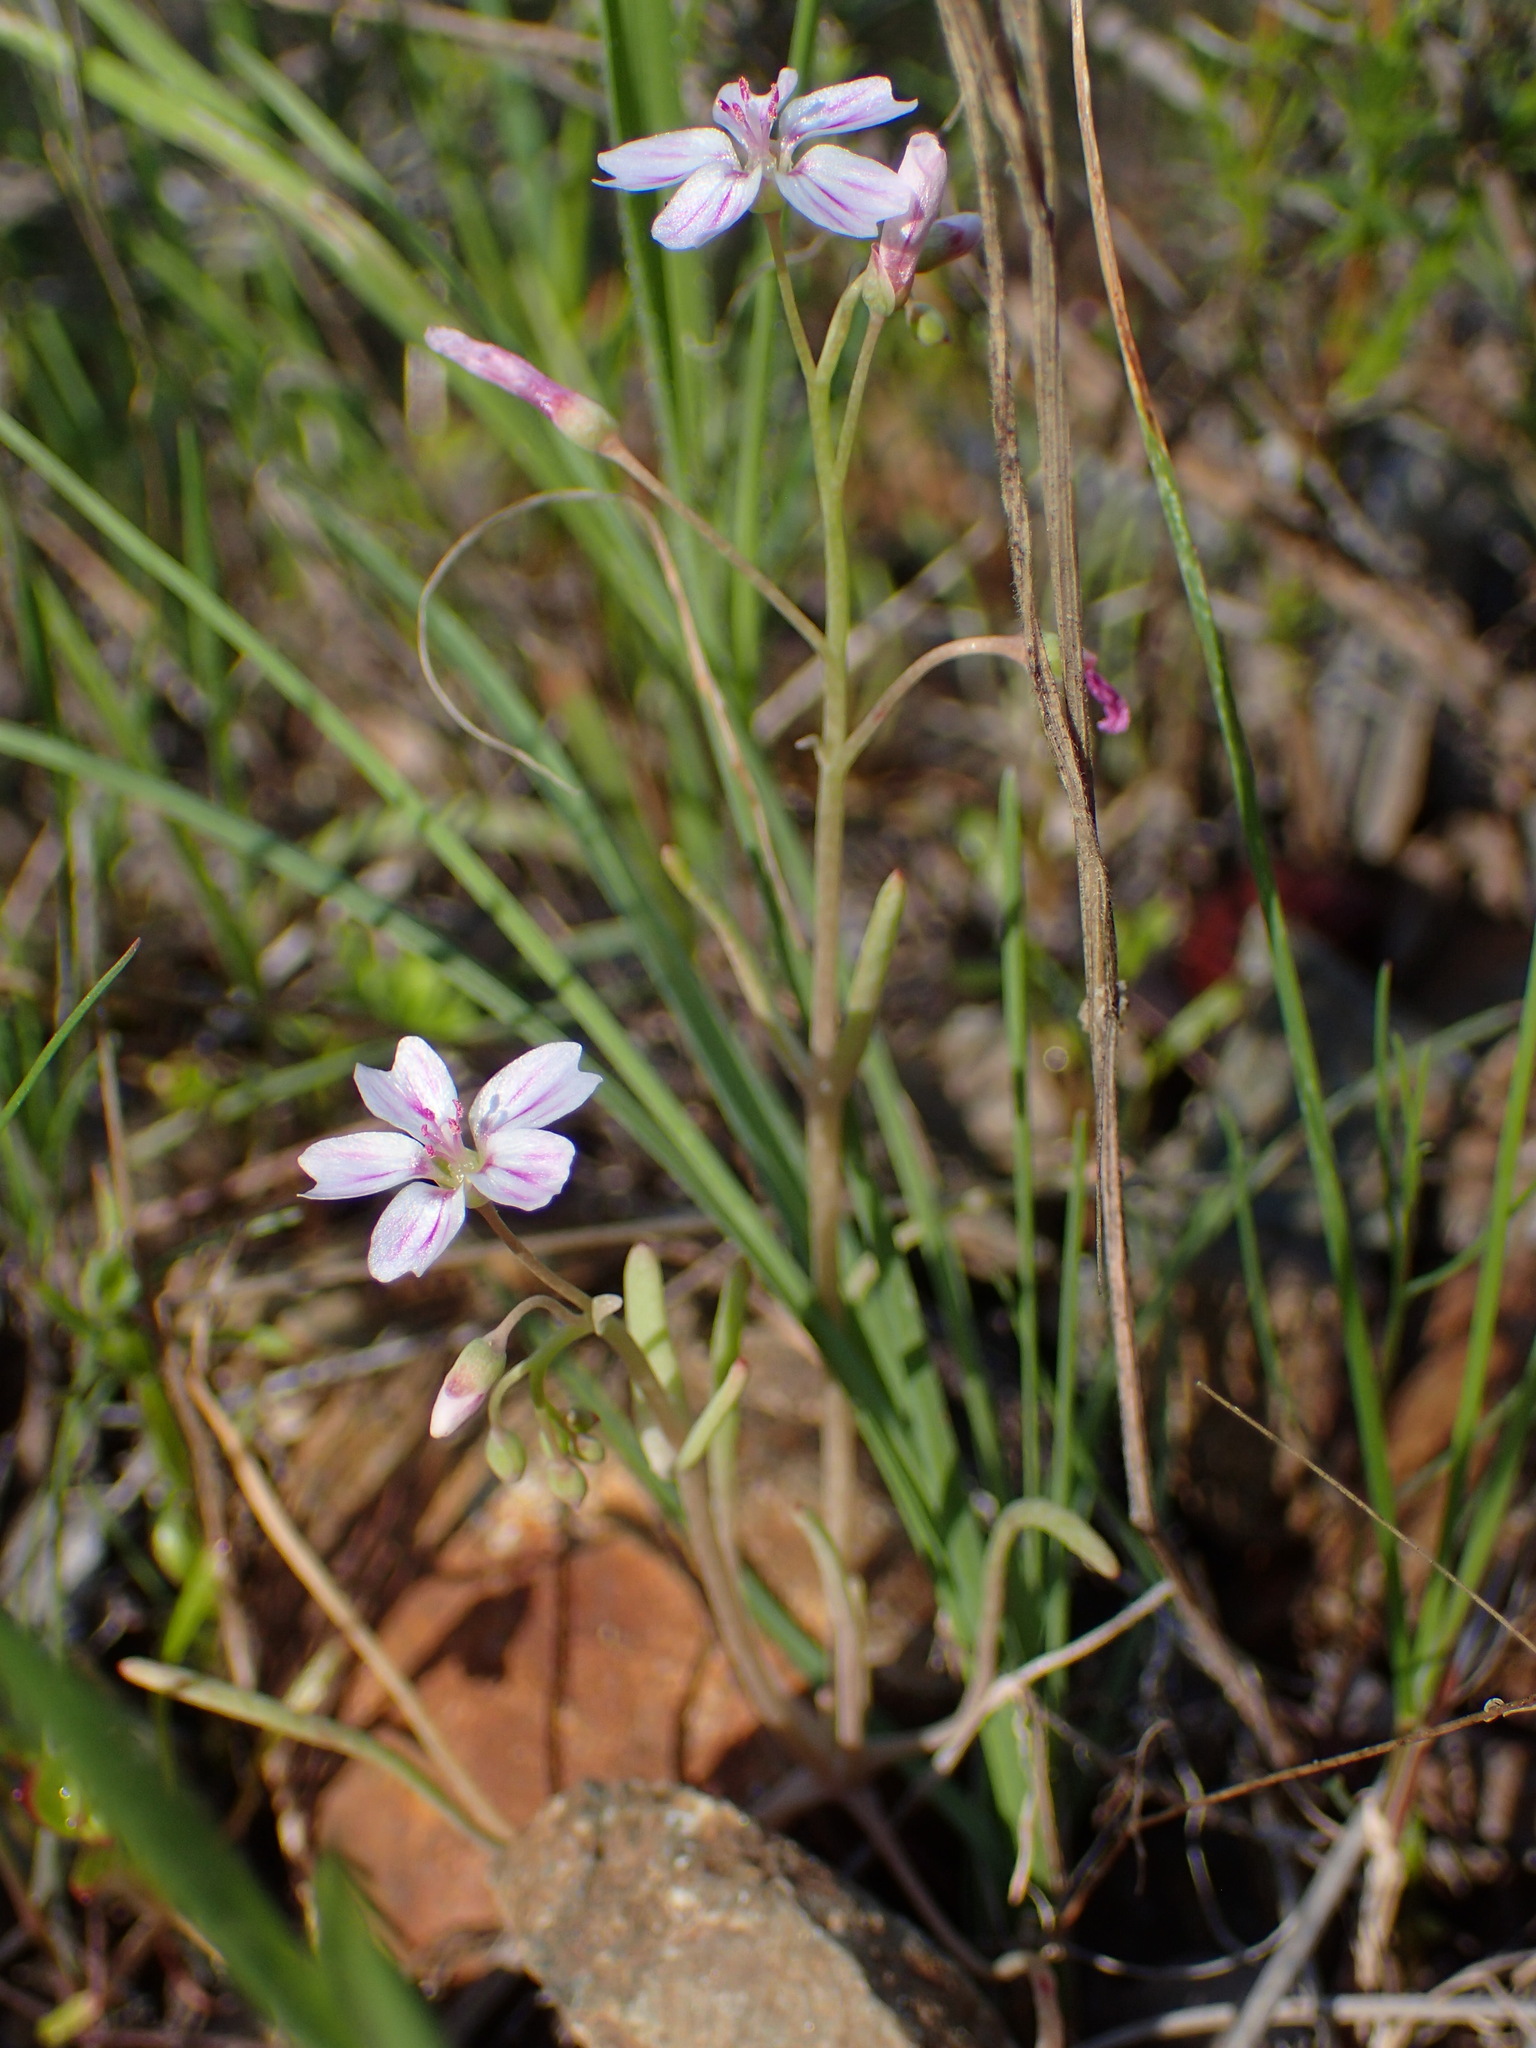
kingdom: Plantae
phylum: Tracheophyta
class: Magnoliopsida
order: Caryophyllales
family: Montiaceae
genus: Claytonia
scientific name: Claytonia gypsophiloides
